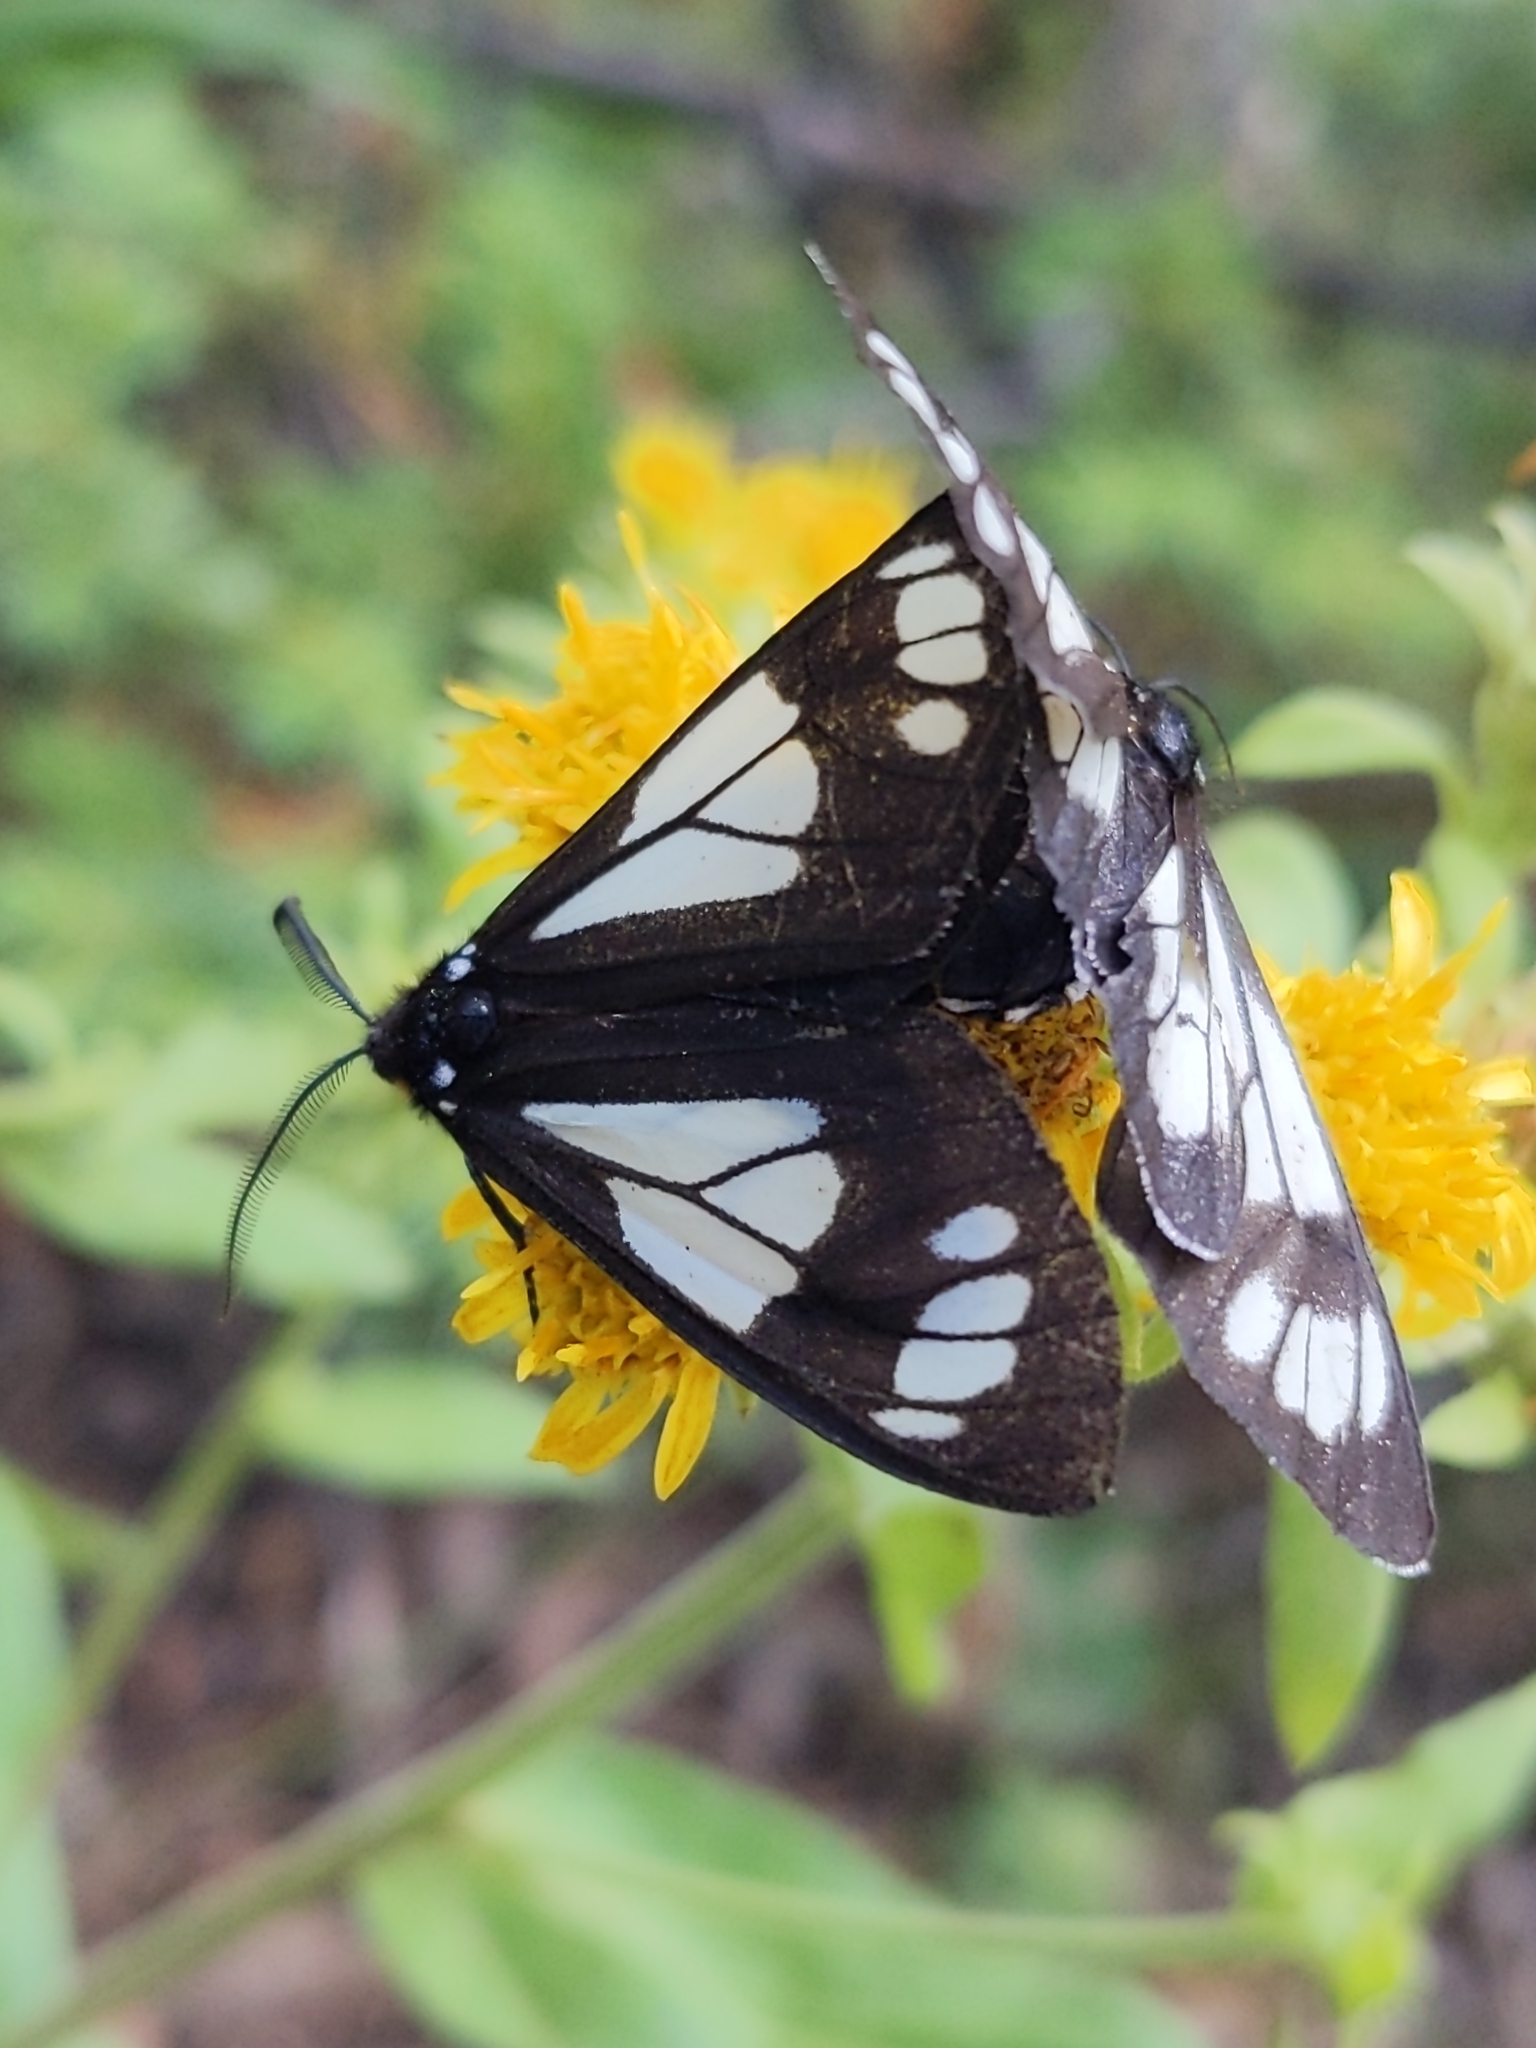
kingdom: Animalia
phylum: Arthropoda
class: Insecta
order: Lepidoptera
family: Erebidae
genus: Gnophaela
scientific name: Gnophaela vermiculata
